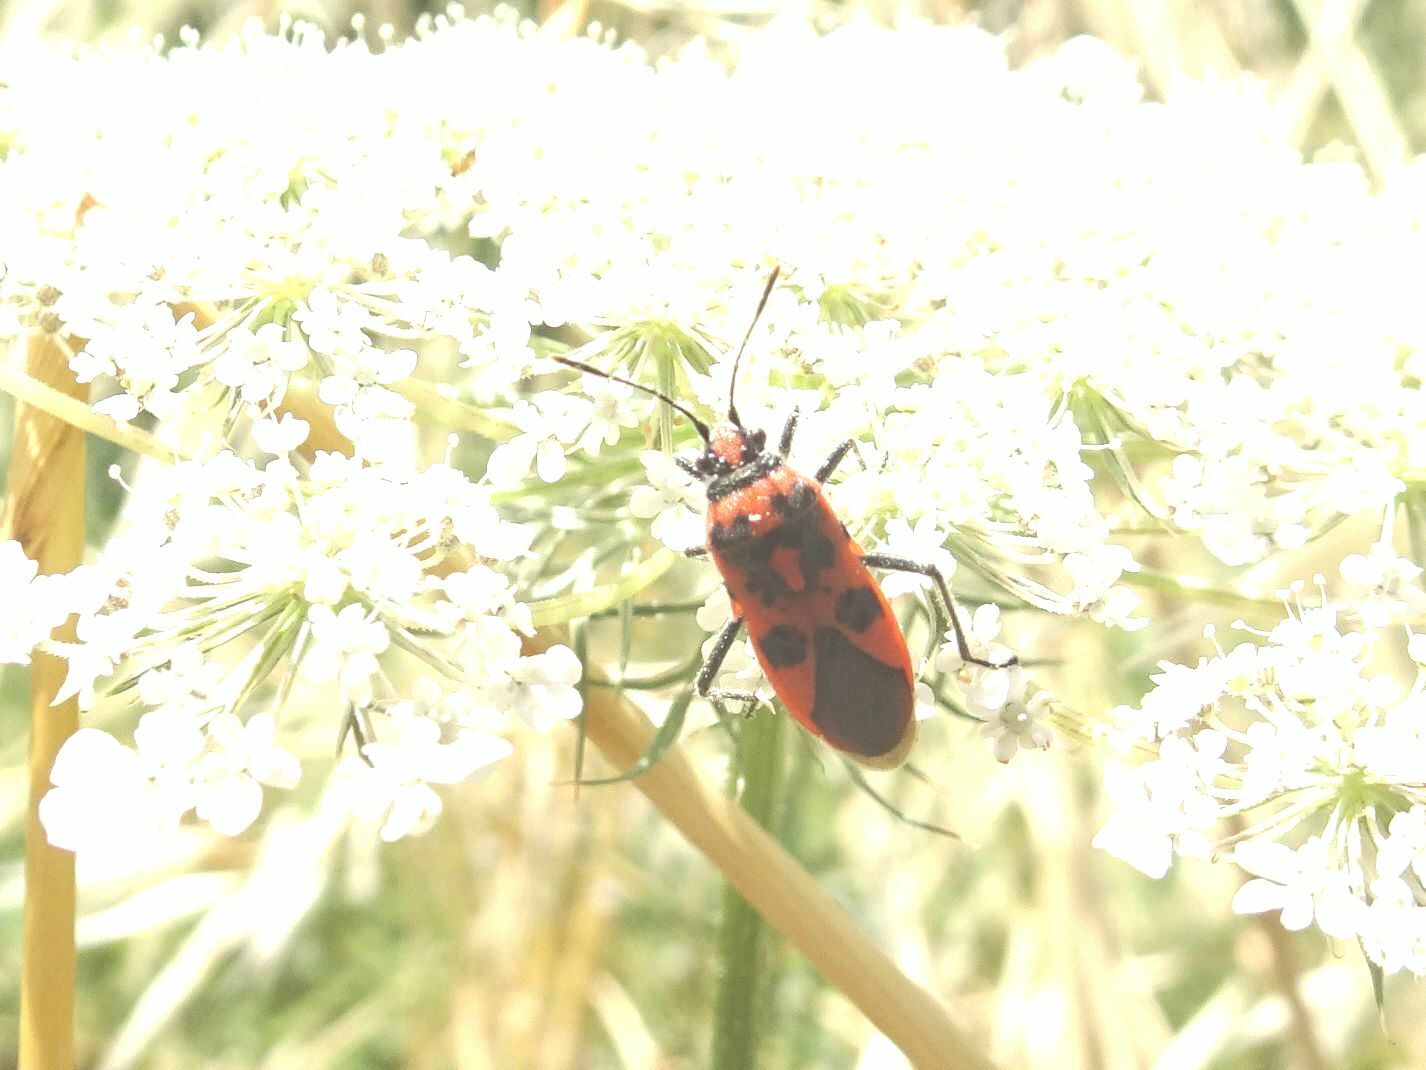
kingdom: Animalia
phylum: Arthropoda
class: Insecta
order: Hemiptera
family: Rhopalidae
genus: Corizus
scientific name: Corizus hyoscyami
